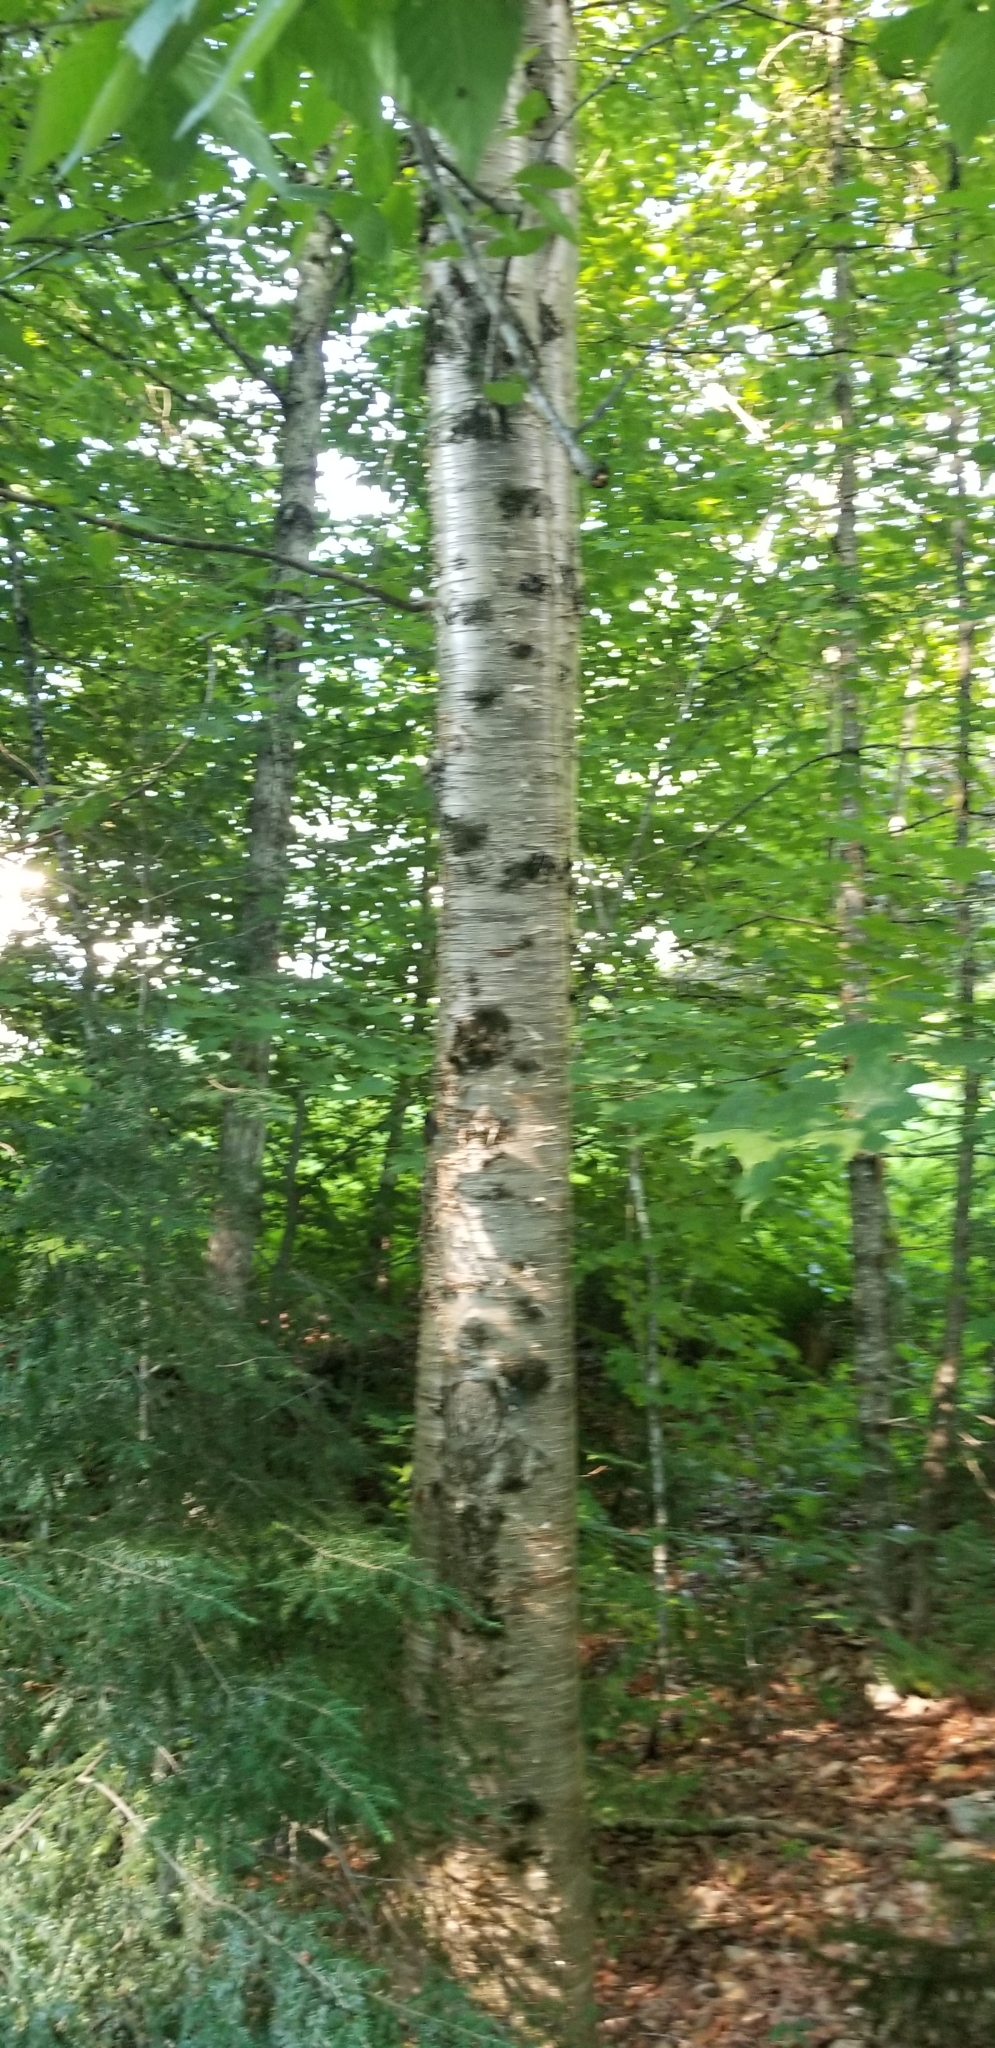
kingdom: Plantae
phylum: Tracheophyta
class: Magnoliopsida
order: Fagales
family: Betulaceae
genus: Betula
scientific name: Betula alleghaniensis
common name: Yellow birch
